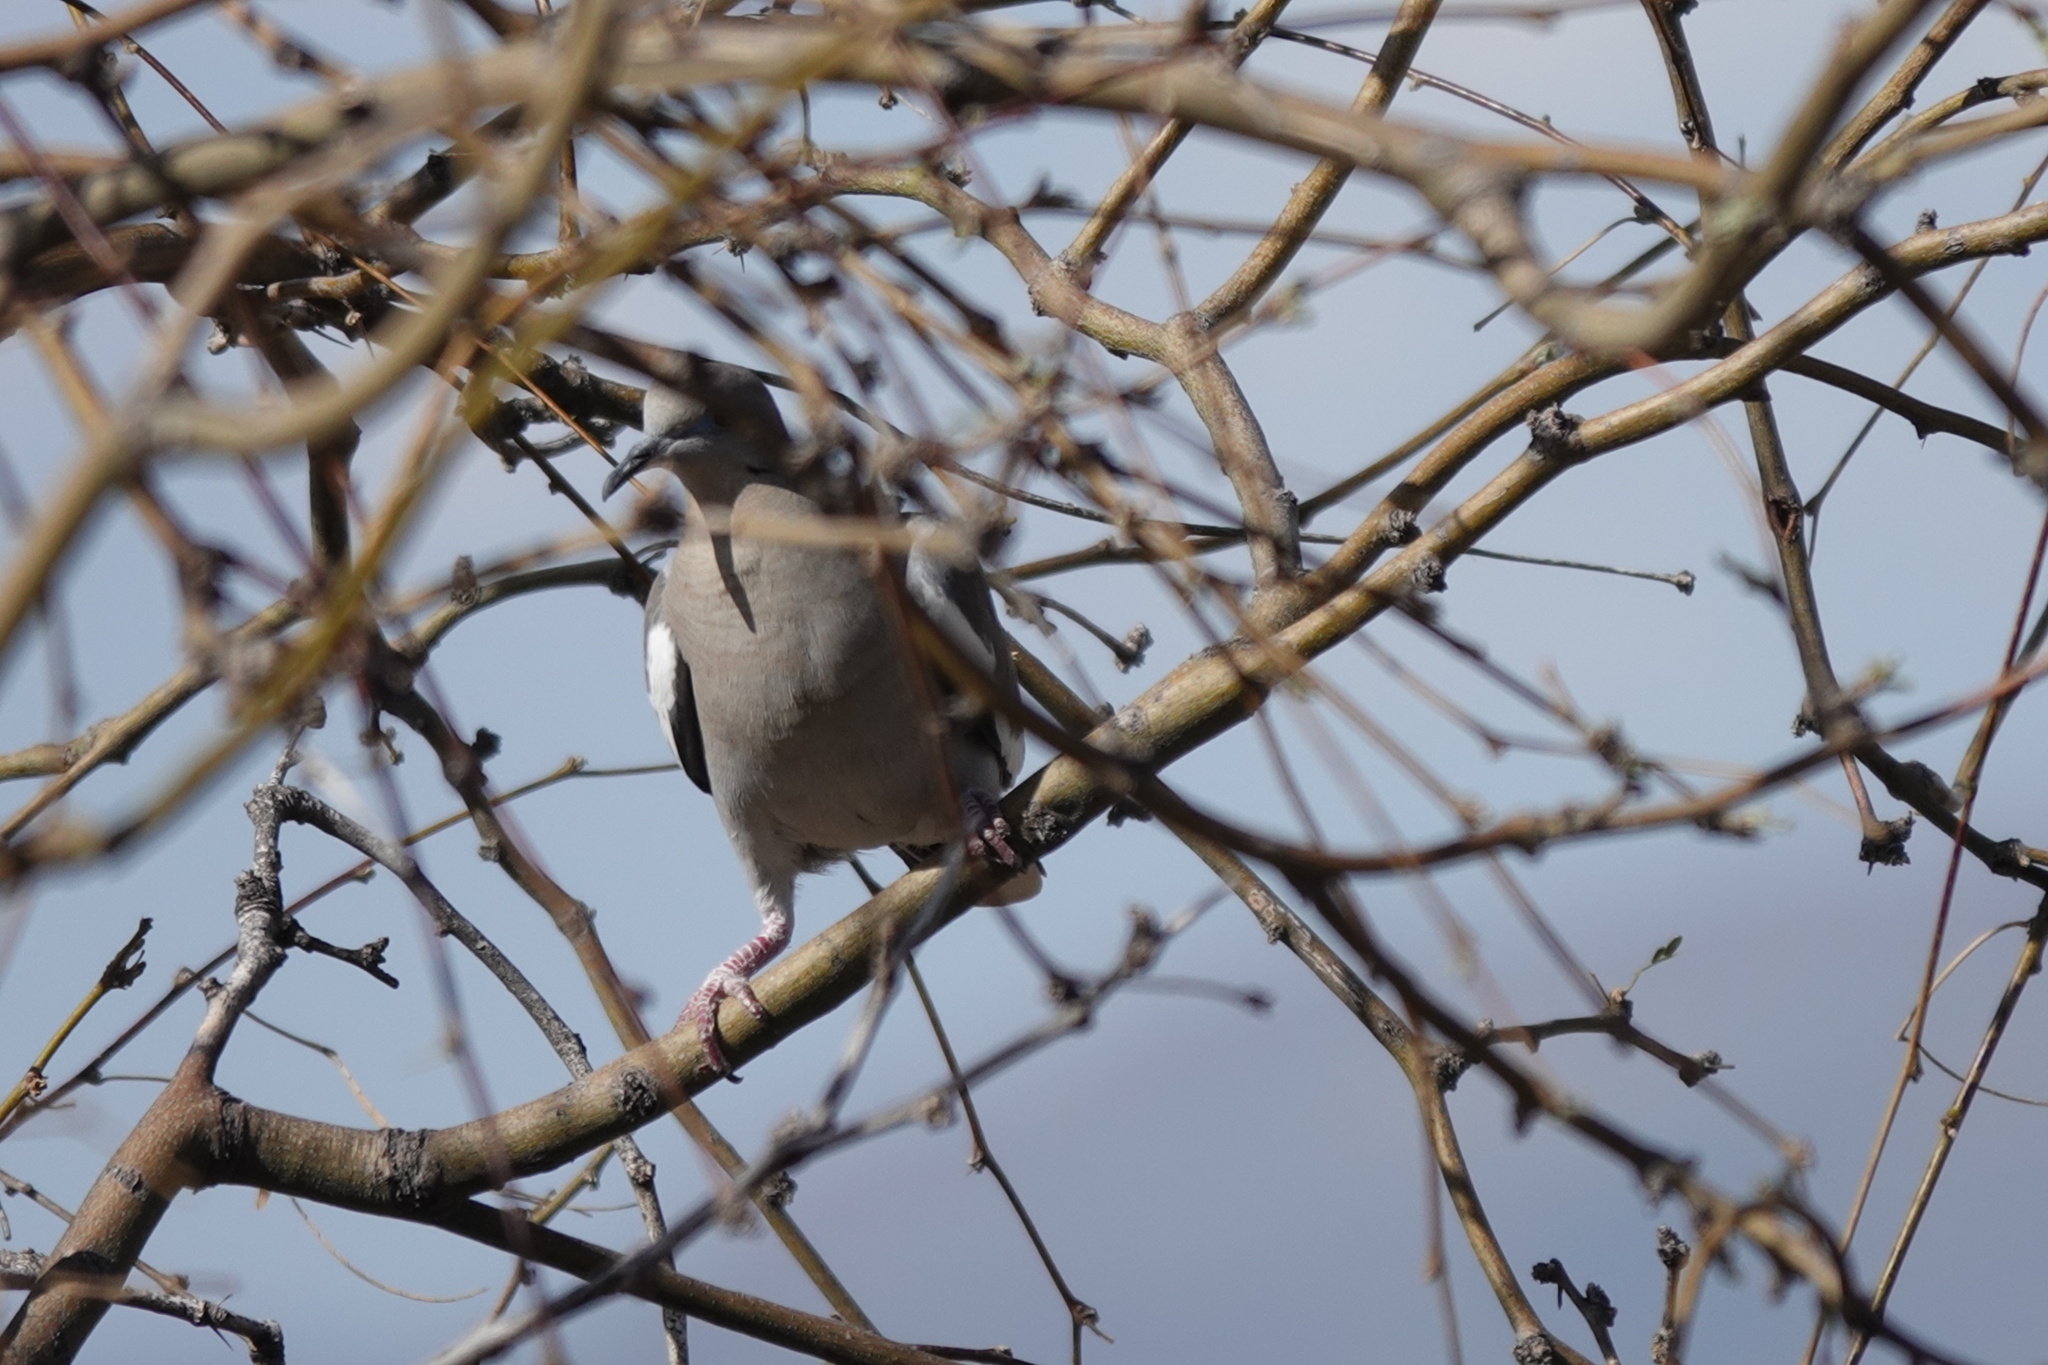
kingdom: Animalia
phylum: Chordata
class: Aves
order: Columbiformes
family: Columbidae
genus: Zenaida
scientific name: Zenaida asiatica
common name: White-winged dove
